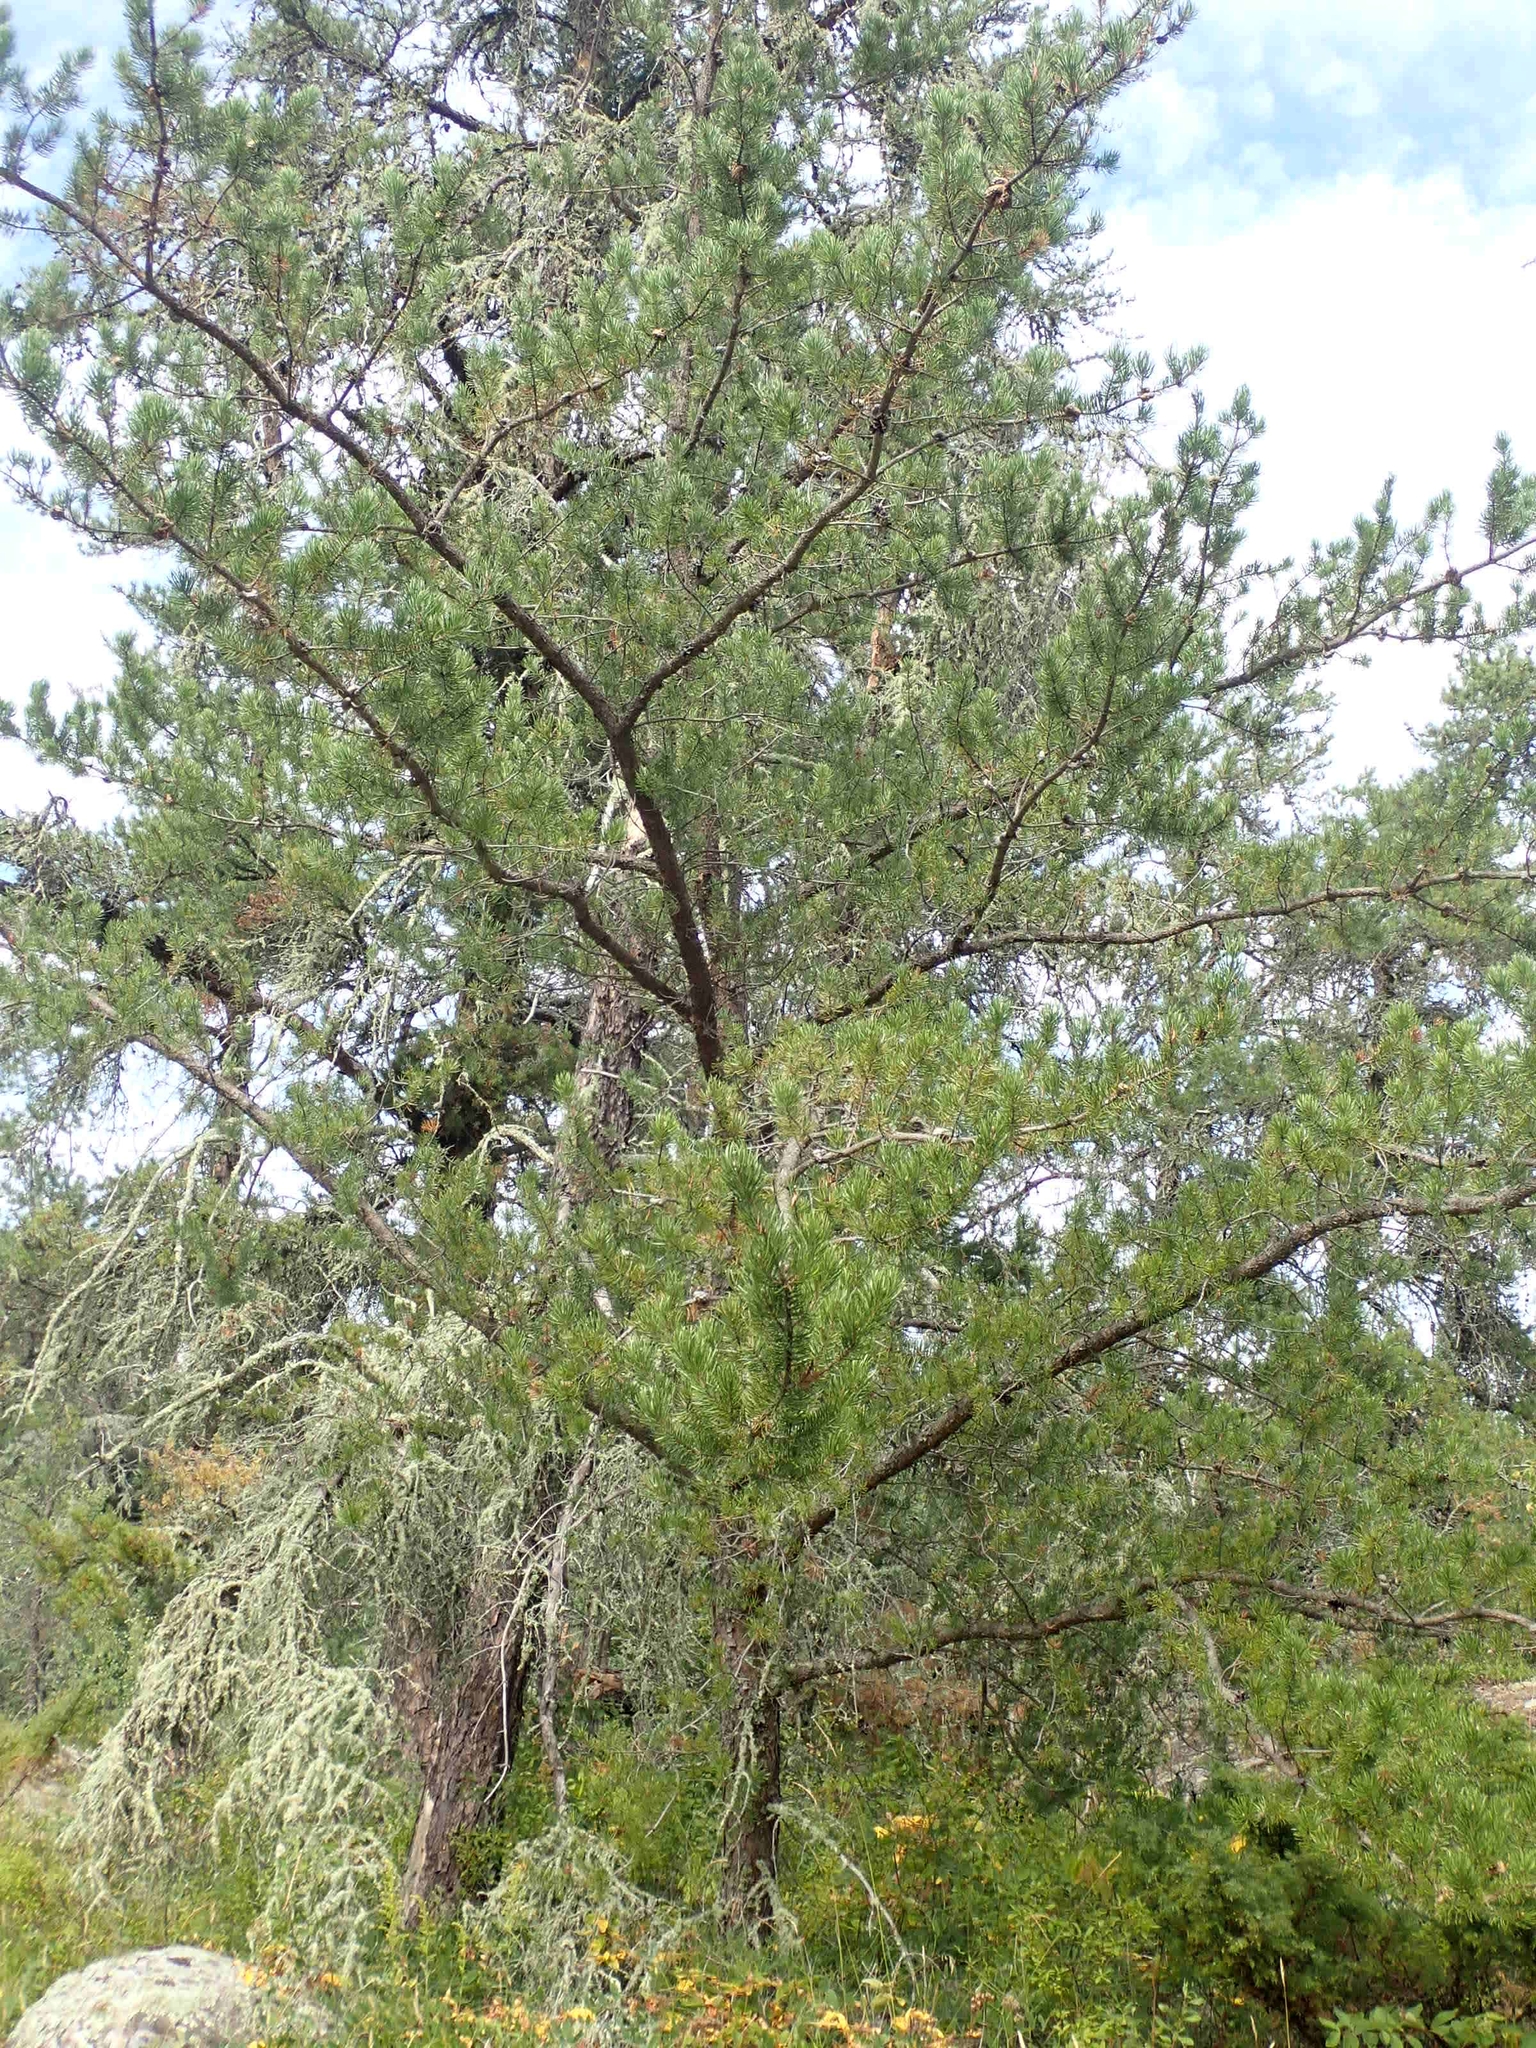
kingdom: Plantae
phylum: Tracheophyta
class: Pinopsida
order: Pinales
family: Pinaceae
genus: Pinus
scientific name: Pinus banksiana
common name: Jack pine
